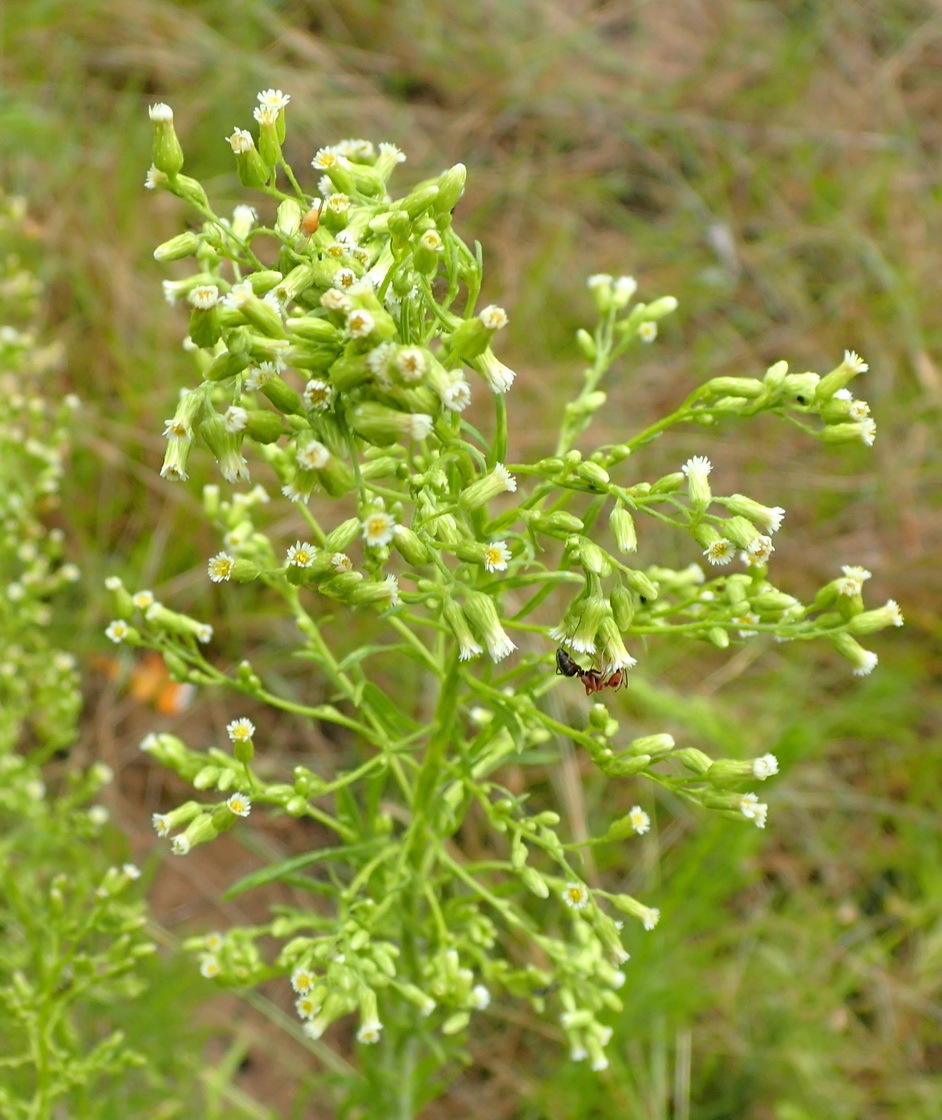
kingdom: Plantae
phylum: Tracheophyta
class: Magnoliopsida
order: Asterales
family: Asteraceae
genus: Erigeron
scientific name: Erigeron canadensis
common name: Canadian fleabane
